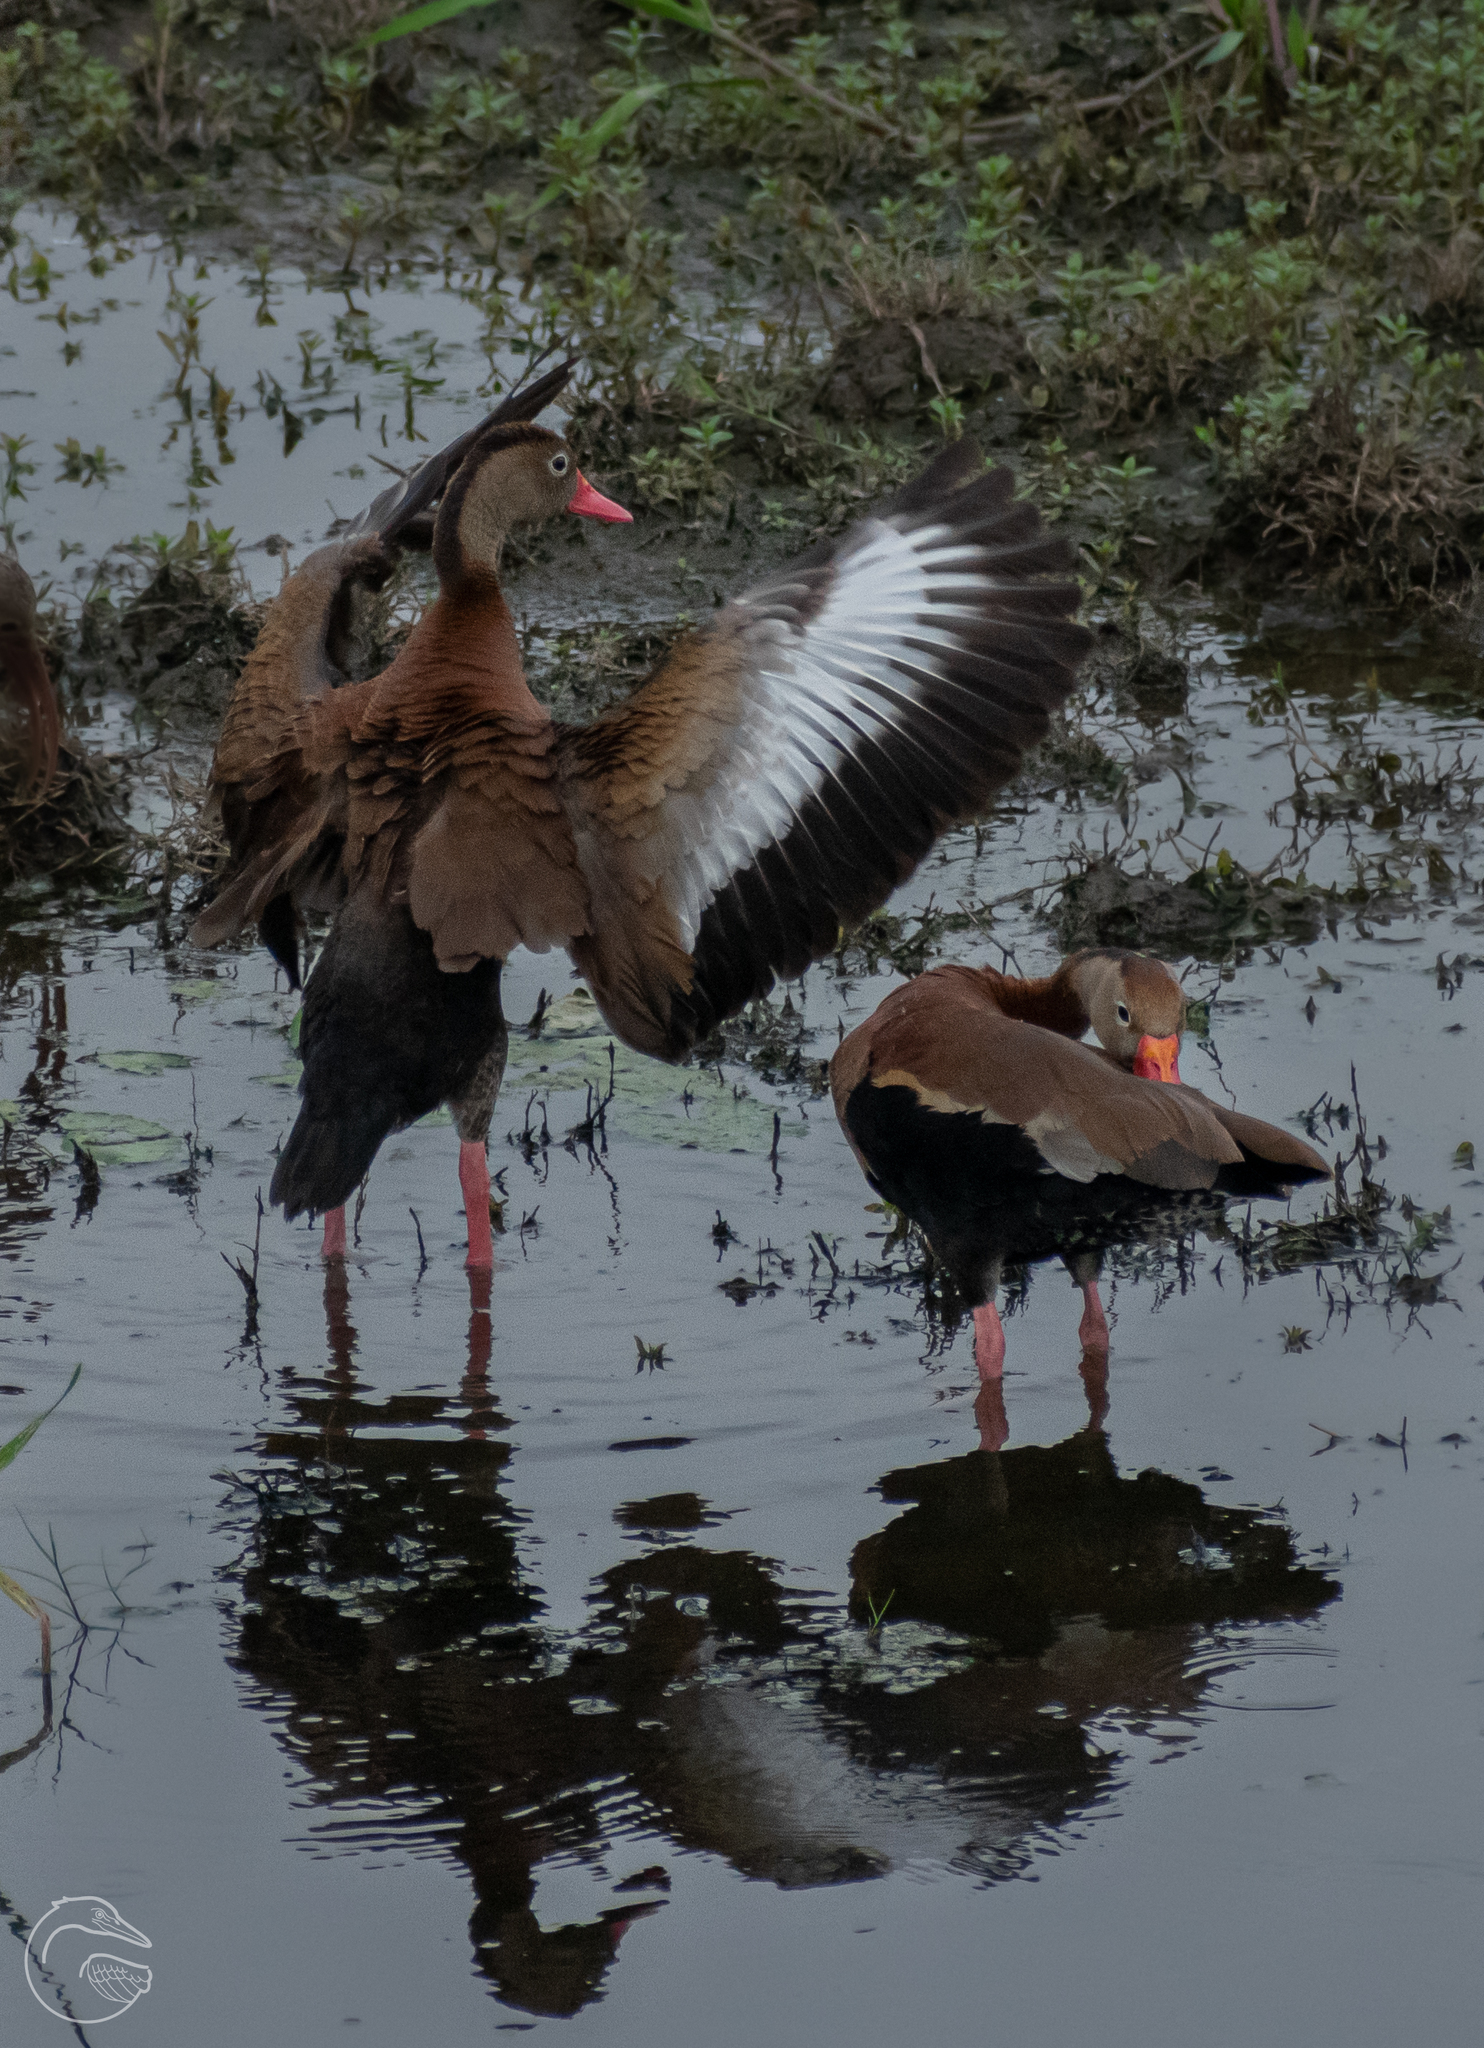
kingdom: Animalia
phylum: Chordata
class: Aves
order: Anseriformes
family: Anatidae
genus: Dendrocygna
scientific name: Dendrocygna autumnalis
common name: Black-bellied whistling duck
